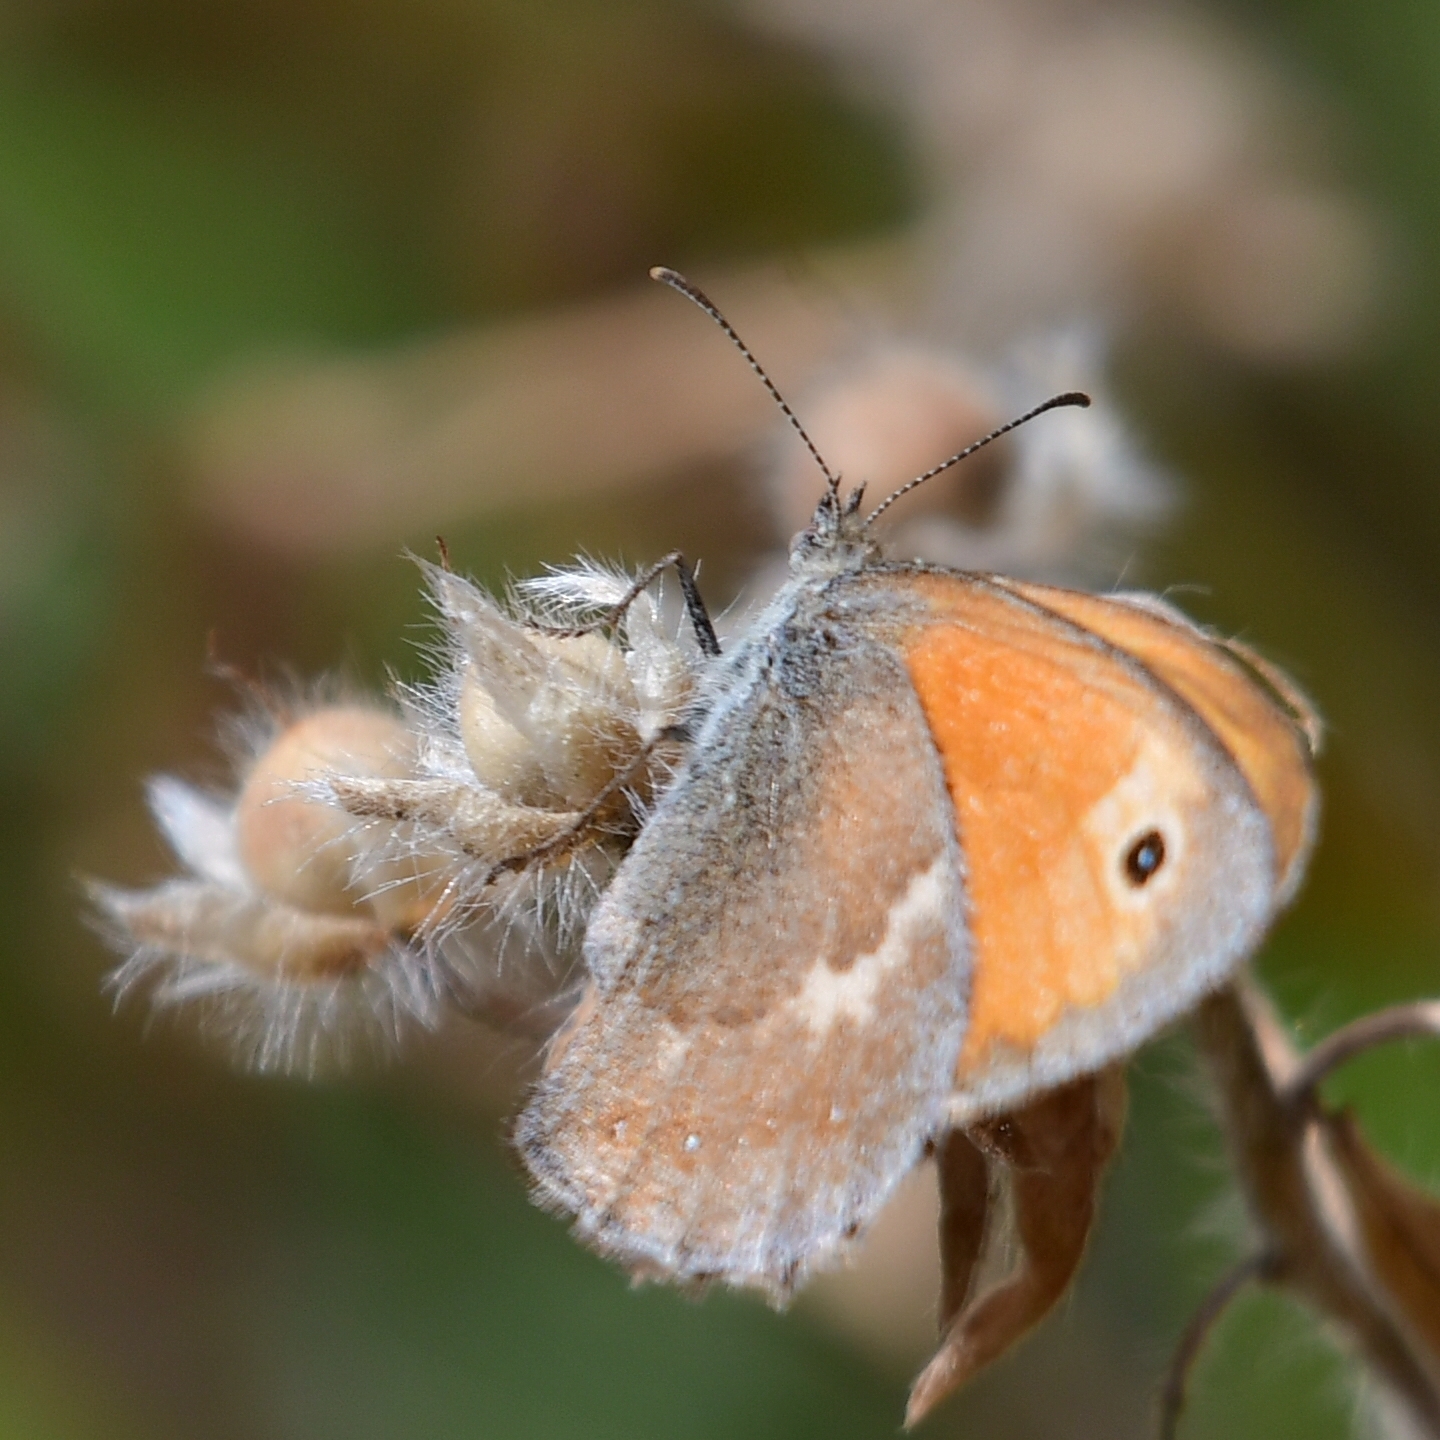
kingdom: Animalia
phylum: Arthropoda
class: Insecta
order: Lepidoptera
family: Nymphalidae
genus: Coenonympha
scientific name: Coenonympha pamphilus
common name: Small heath
